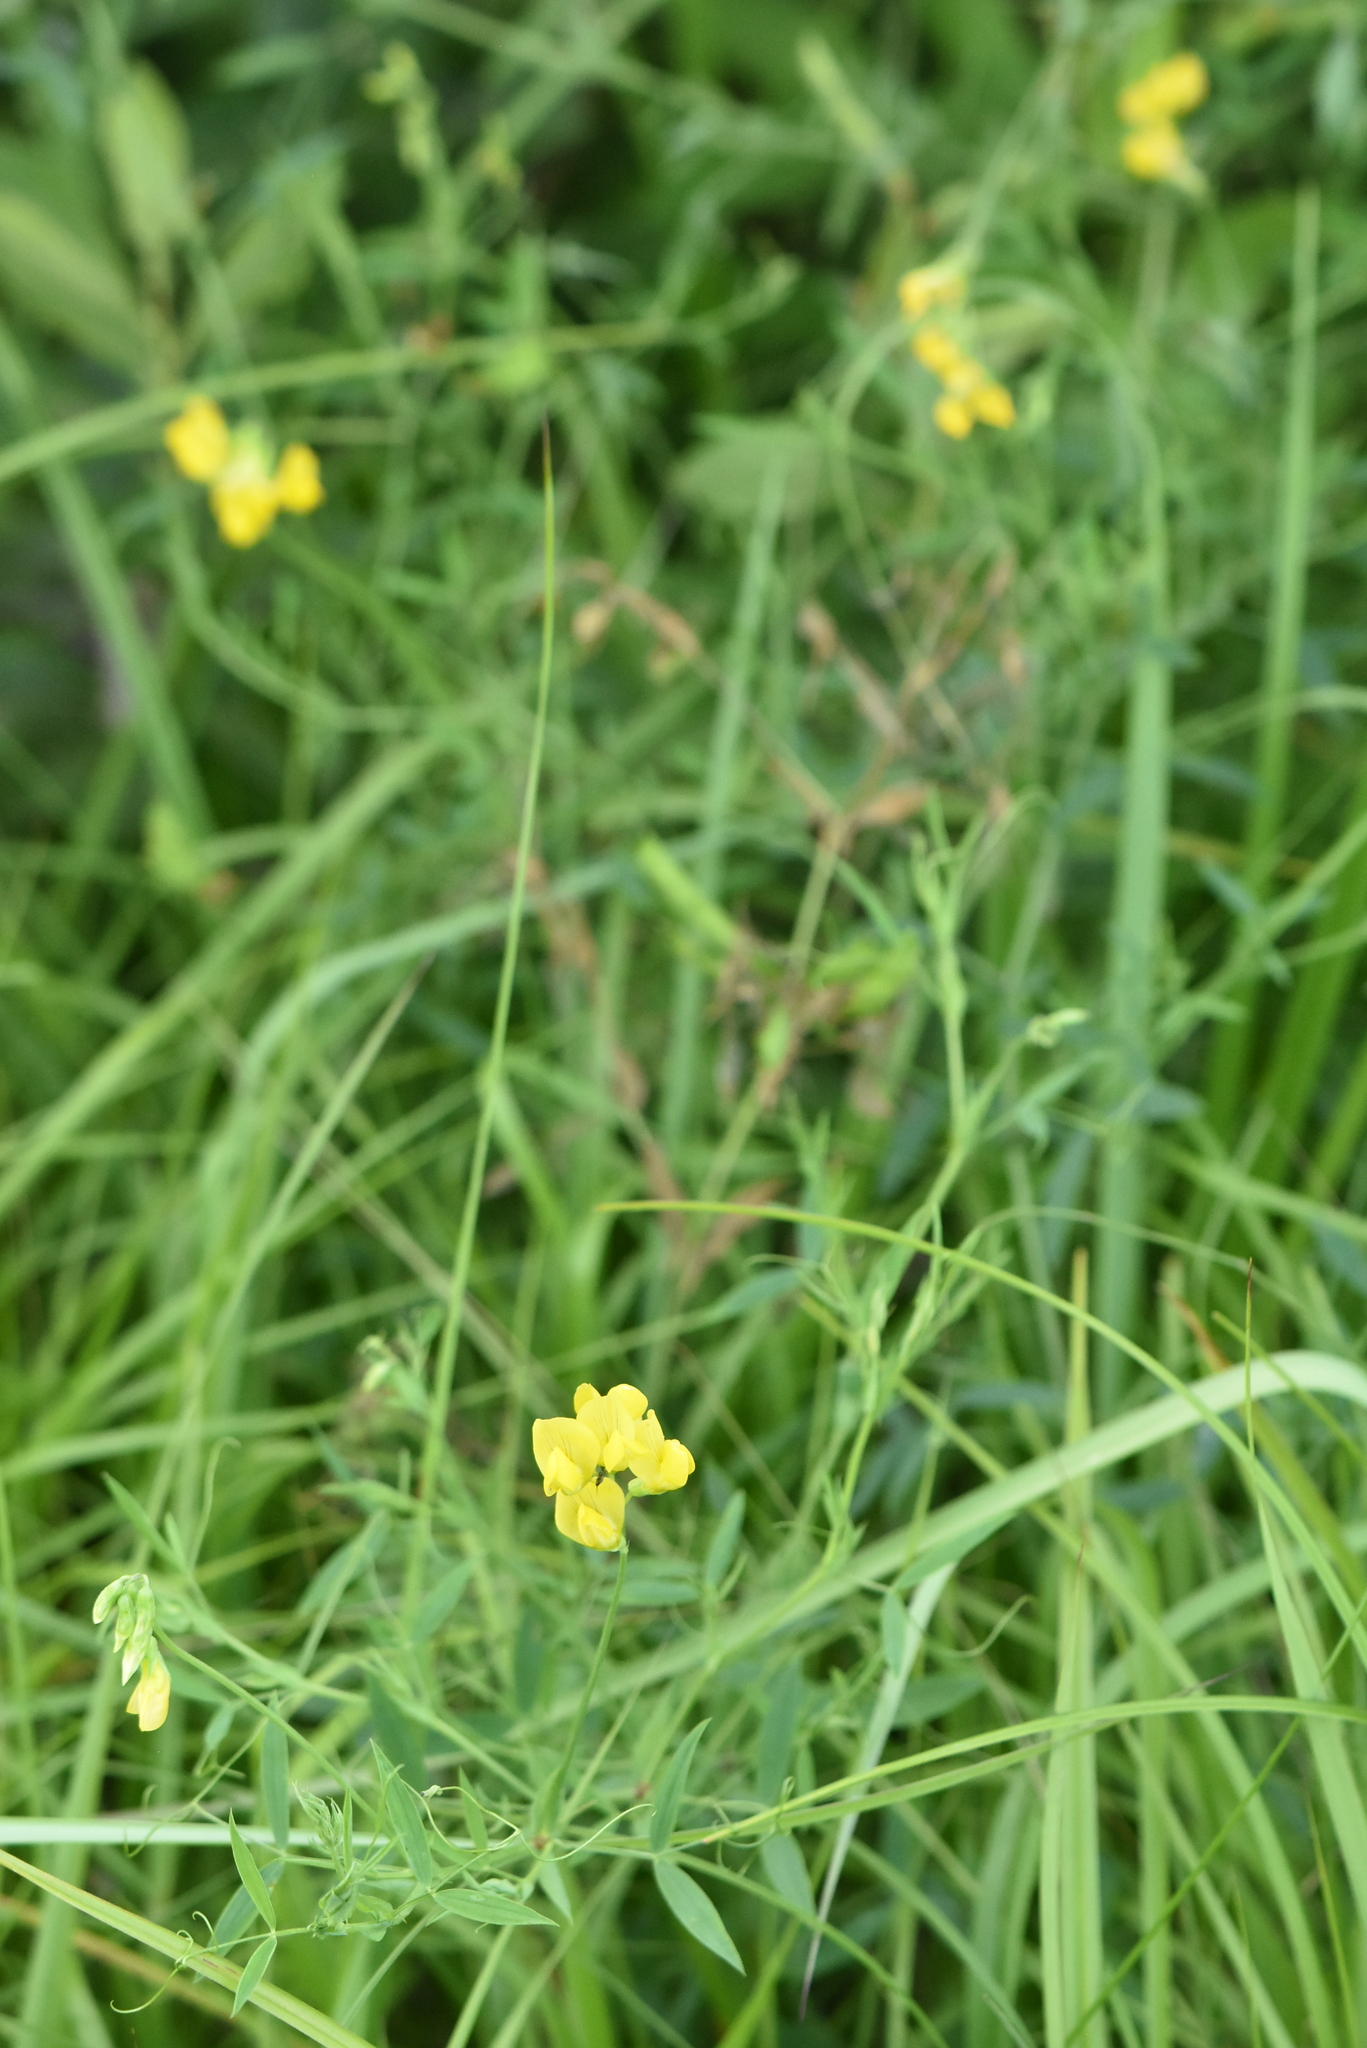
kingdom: Plantae
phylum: Tracheophyta
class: Magnoliopsida
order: Fabales
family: Fabaceae
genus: Lathyrus
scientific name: Lathyrus pratensis
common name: Meadow vetchling
